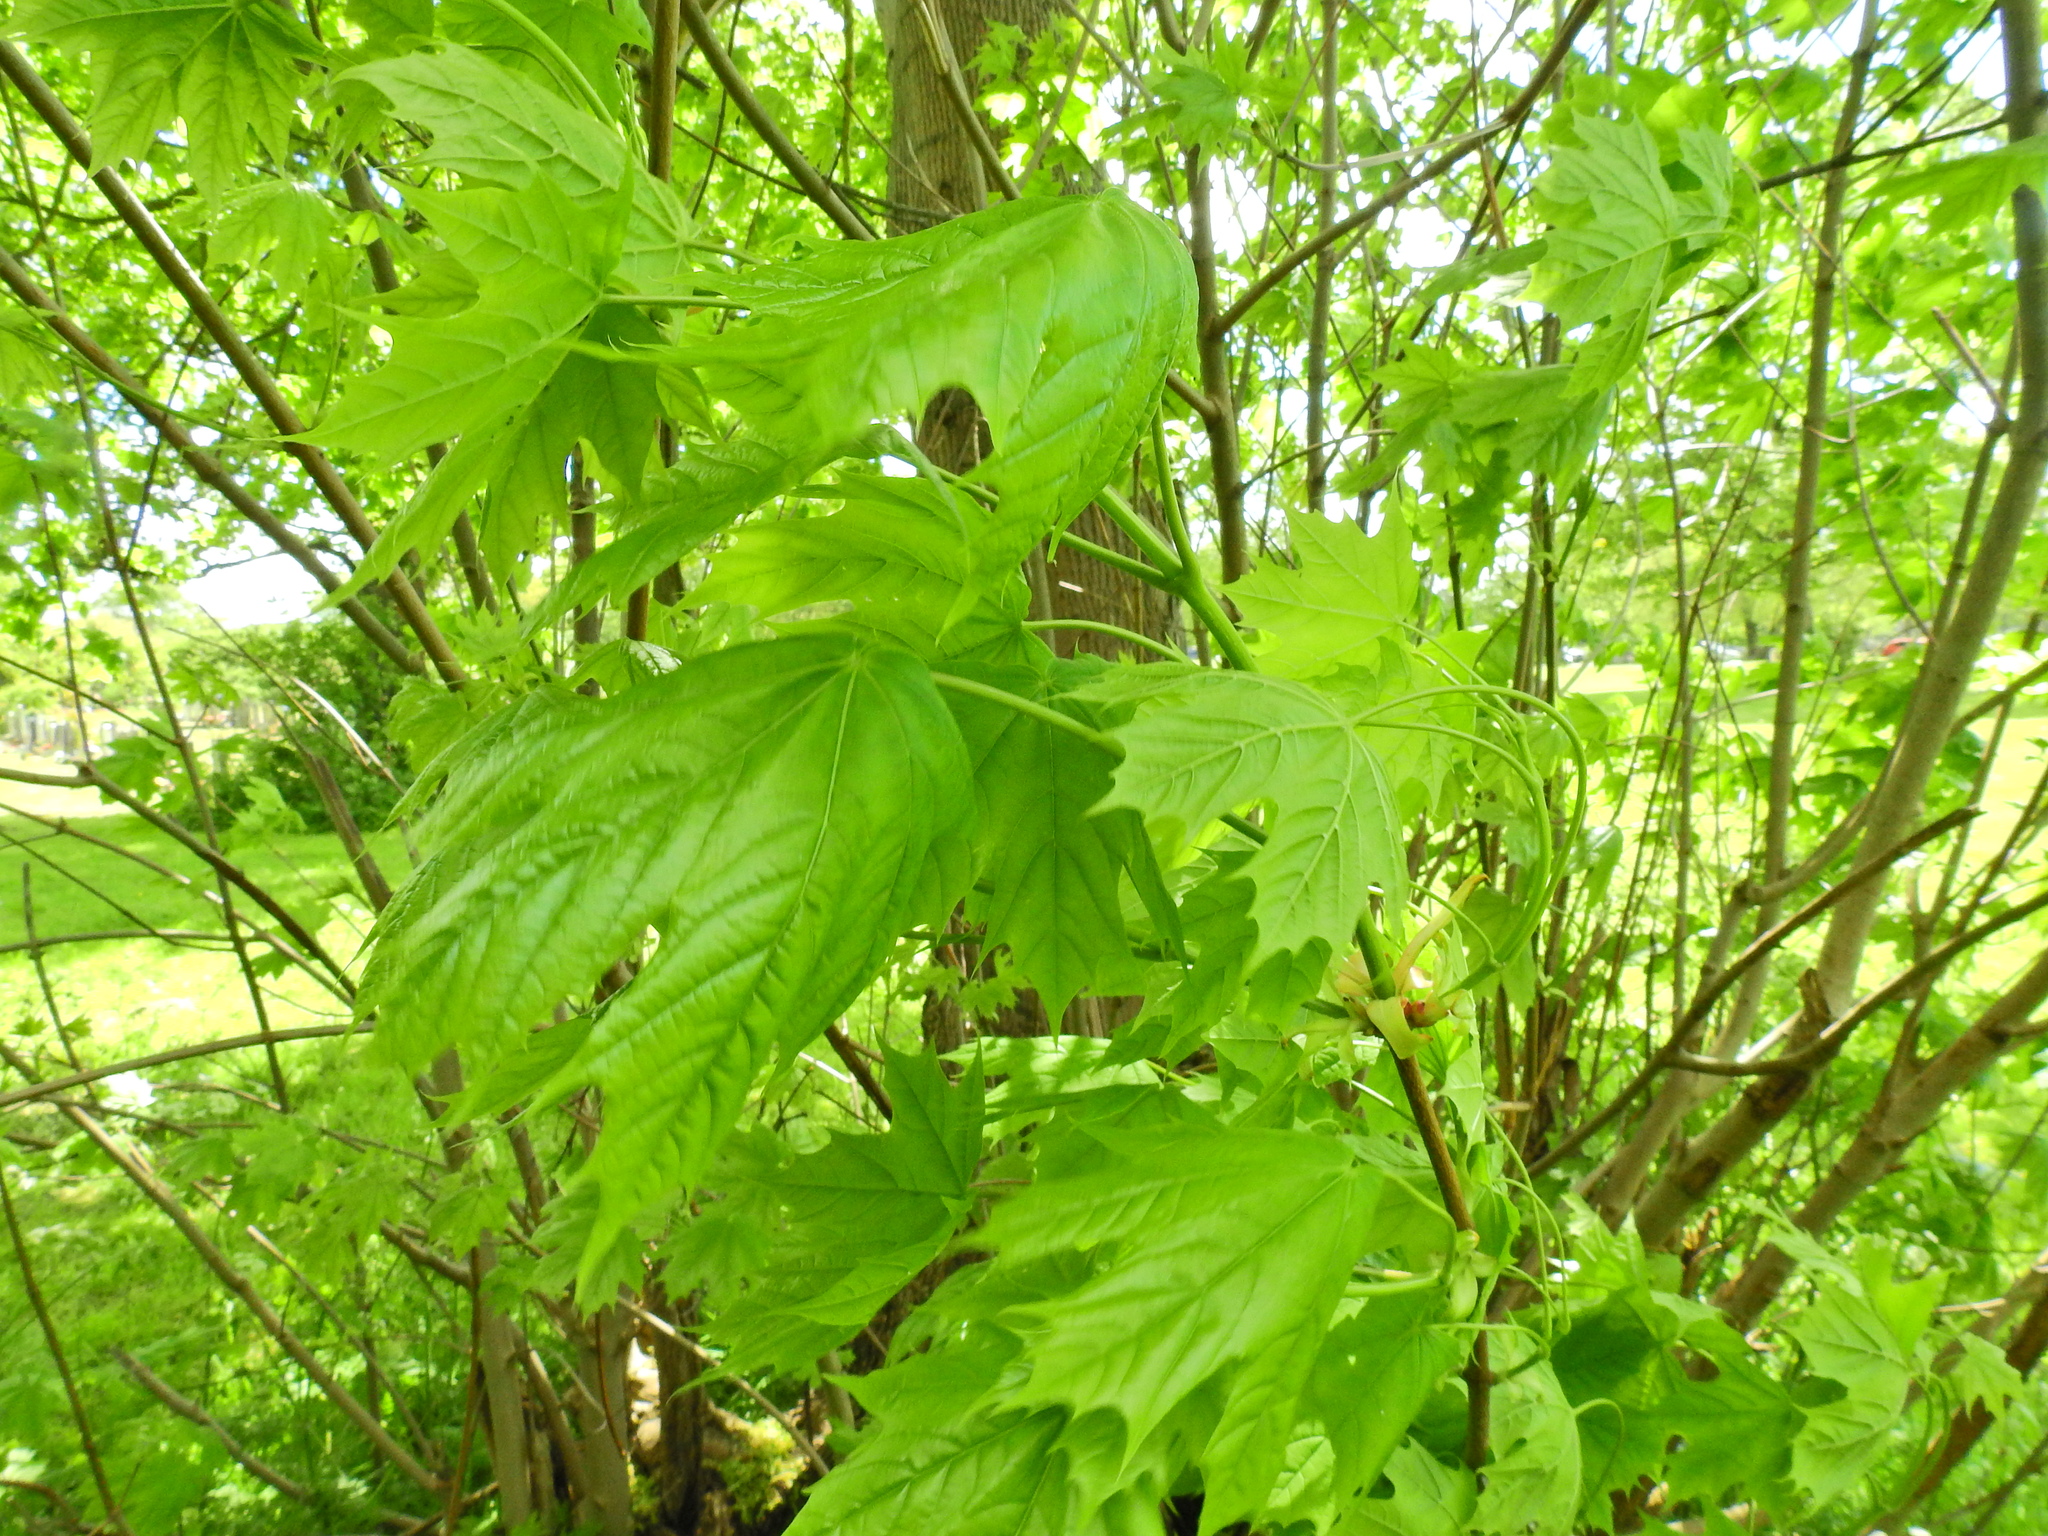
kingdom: Plantae
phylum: Tracheophyta
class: Magnoliopsida
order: Sapindales
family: Sapindaceae
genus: Acer
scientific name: Acer platanoides
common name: Norway maple
